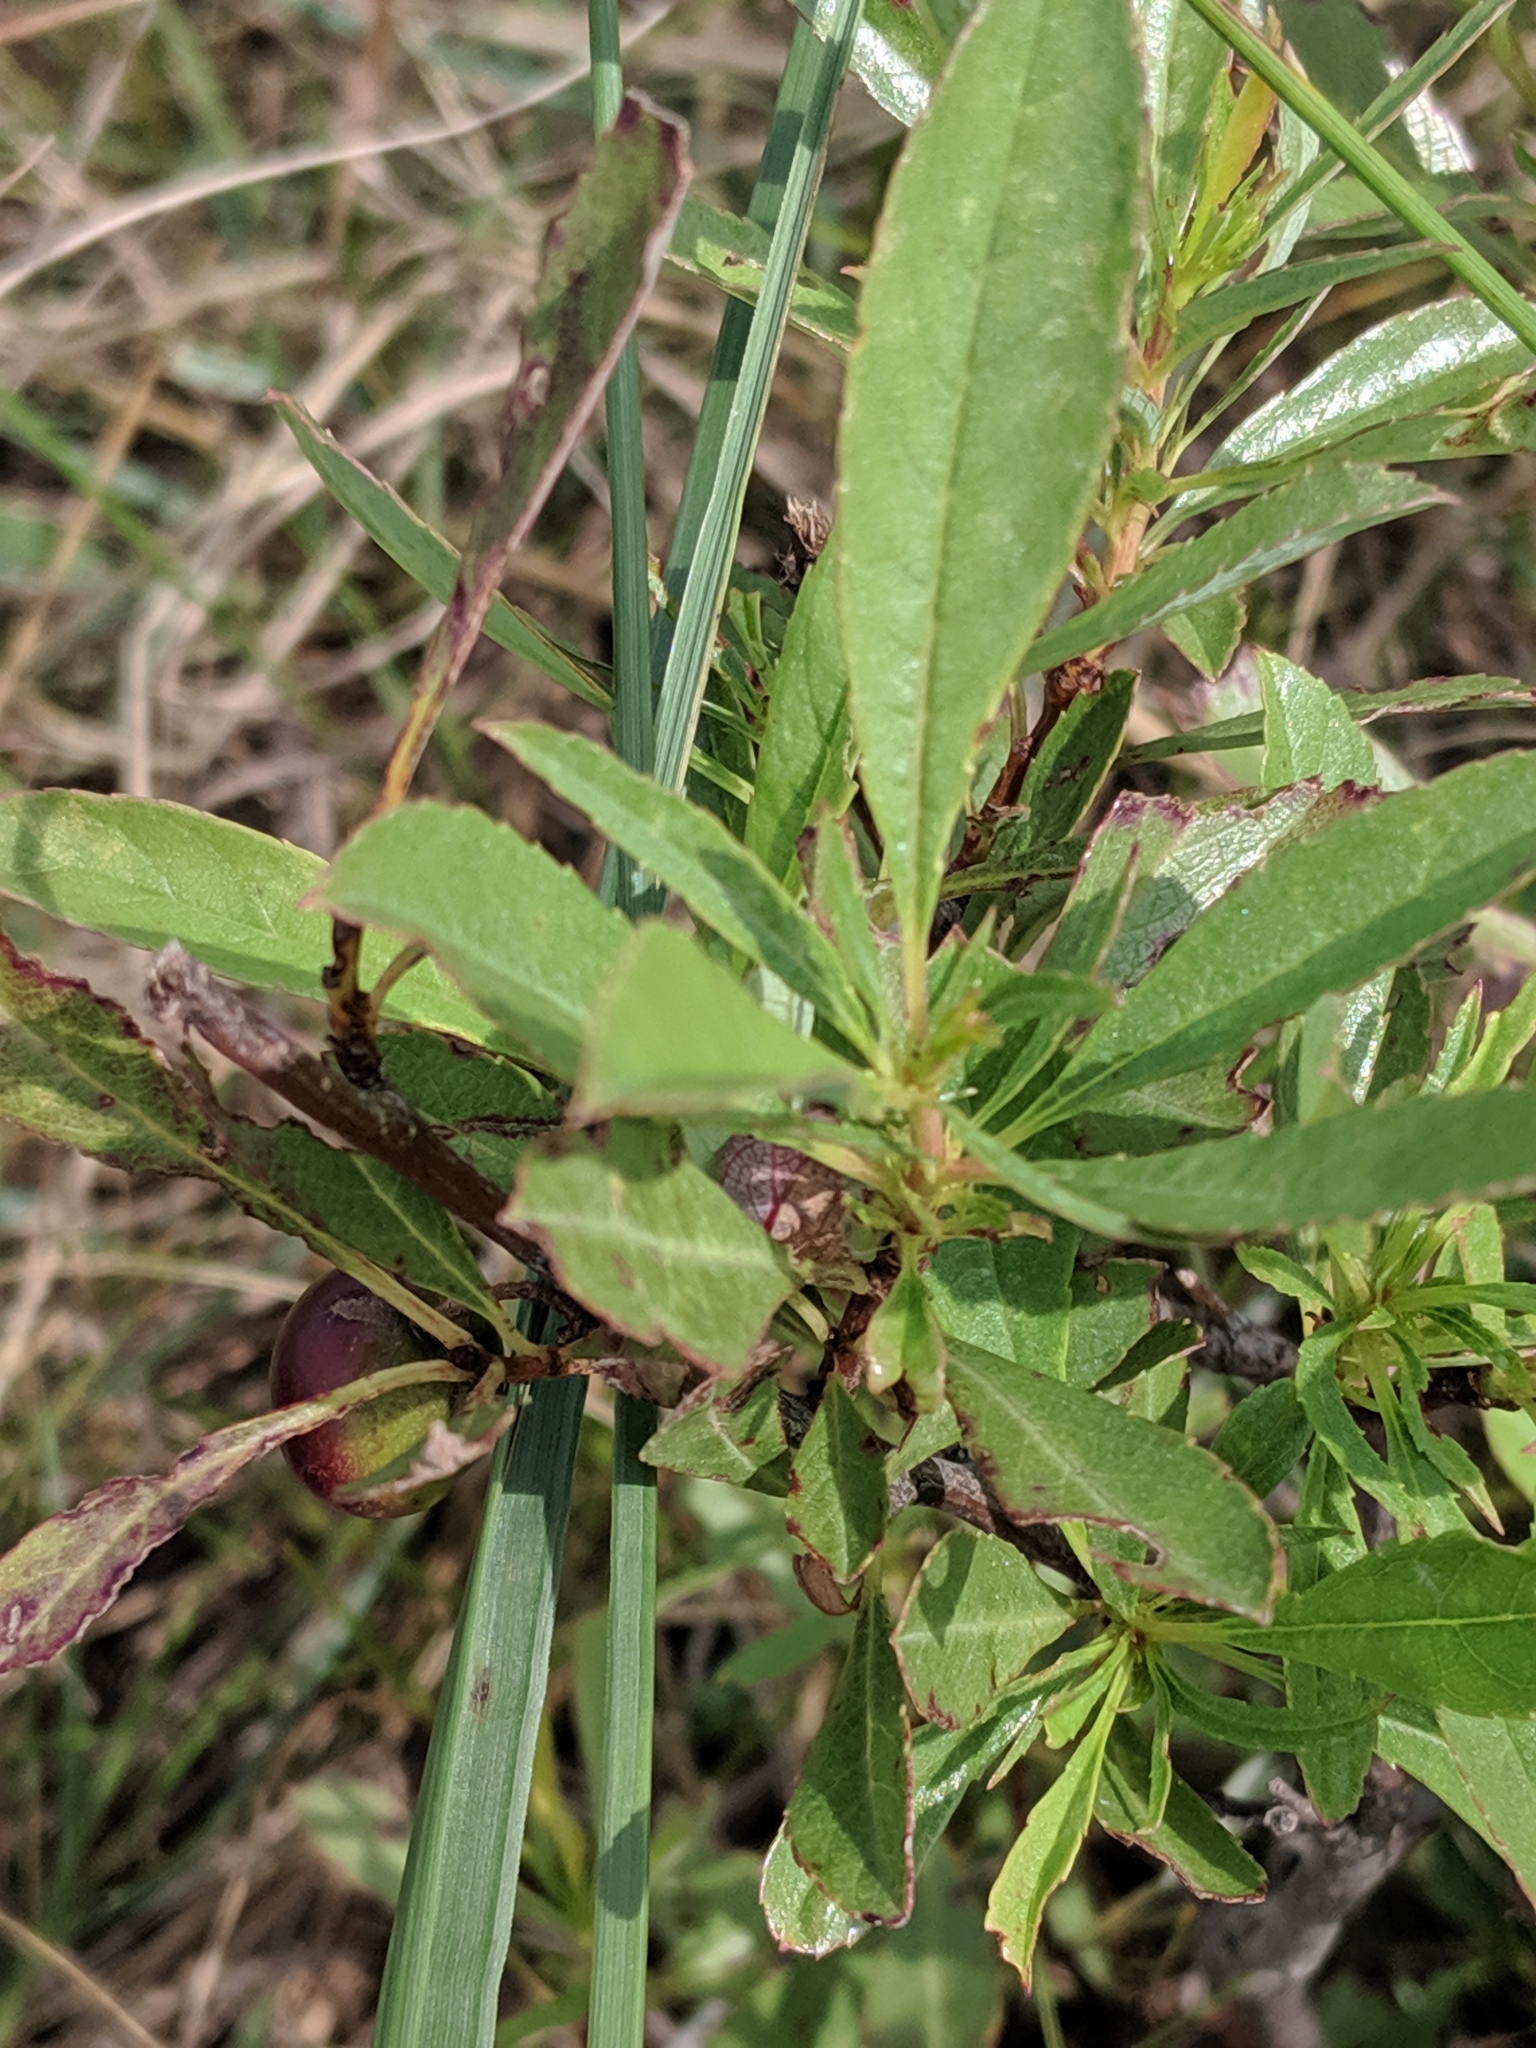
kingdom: Plantae
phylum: Tracheophyta
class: Magnoliopsida
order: Rosales
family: Rosaceae
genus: Prunus
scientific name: Prunus pumila
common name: Dwarf cherry
